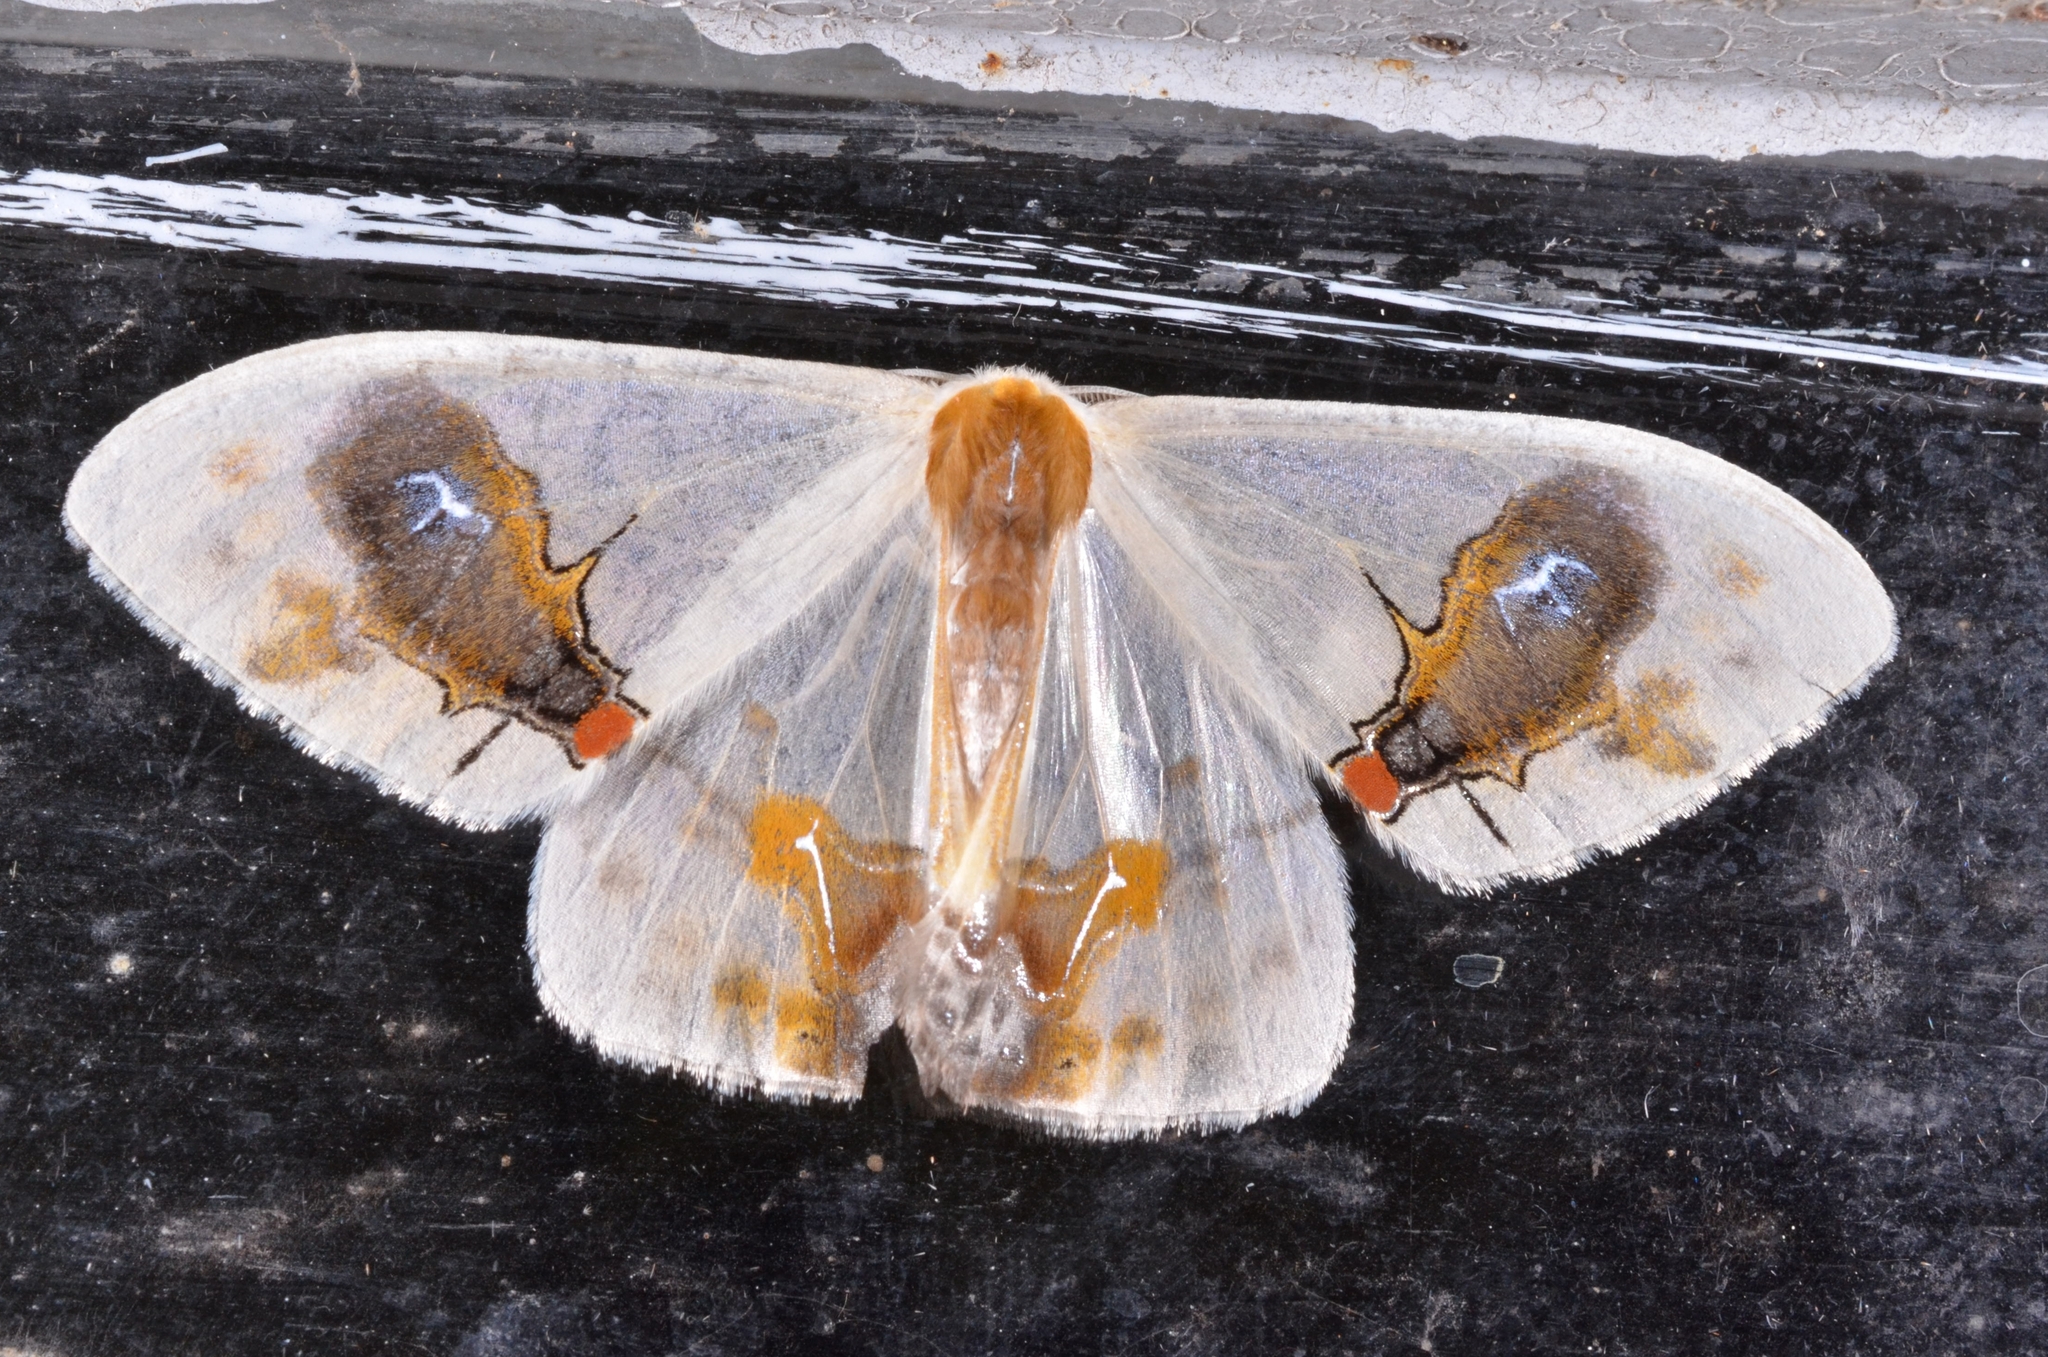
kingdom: Animalia
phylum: Arthropoda
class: Insecta
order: Lepidoptera
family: Drepanidae
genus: Macrocilix
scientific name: Macrocilix maia
